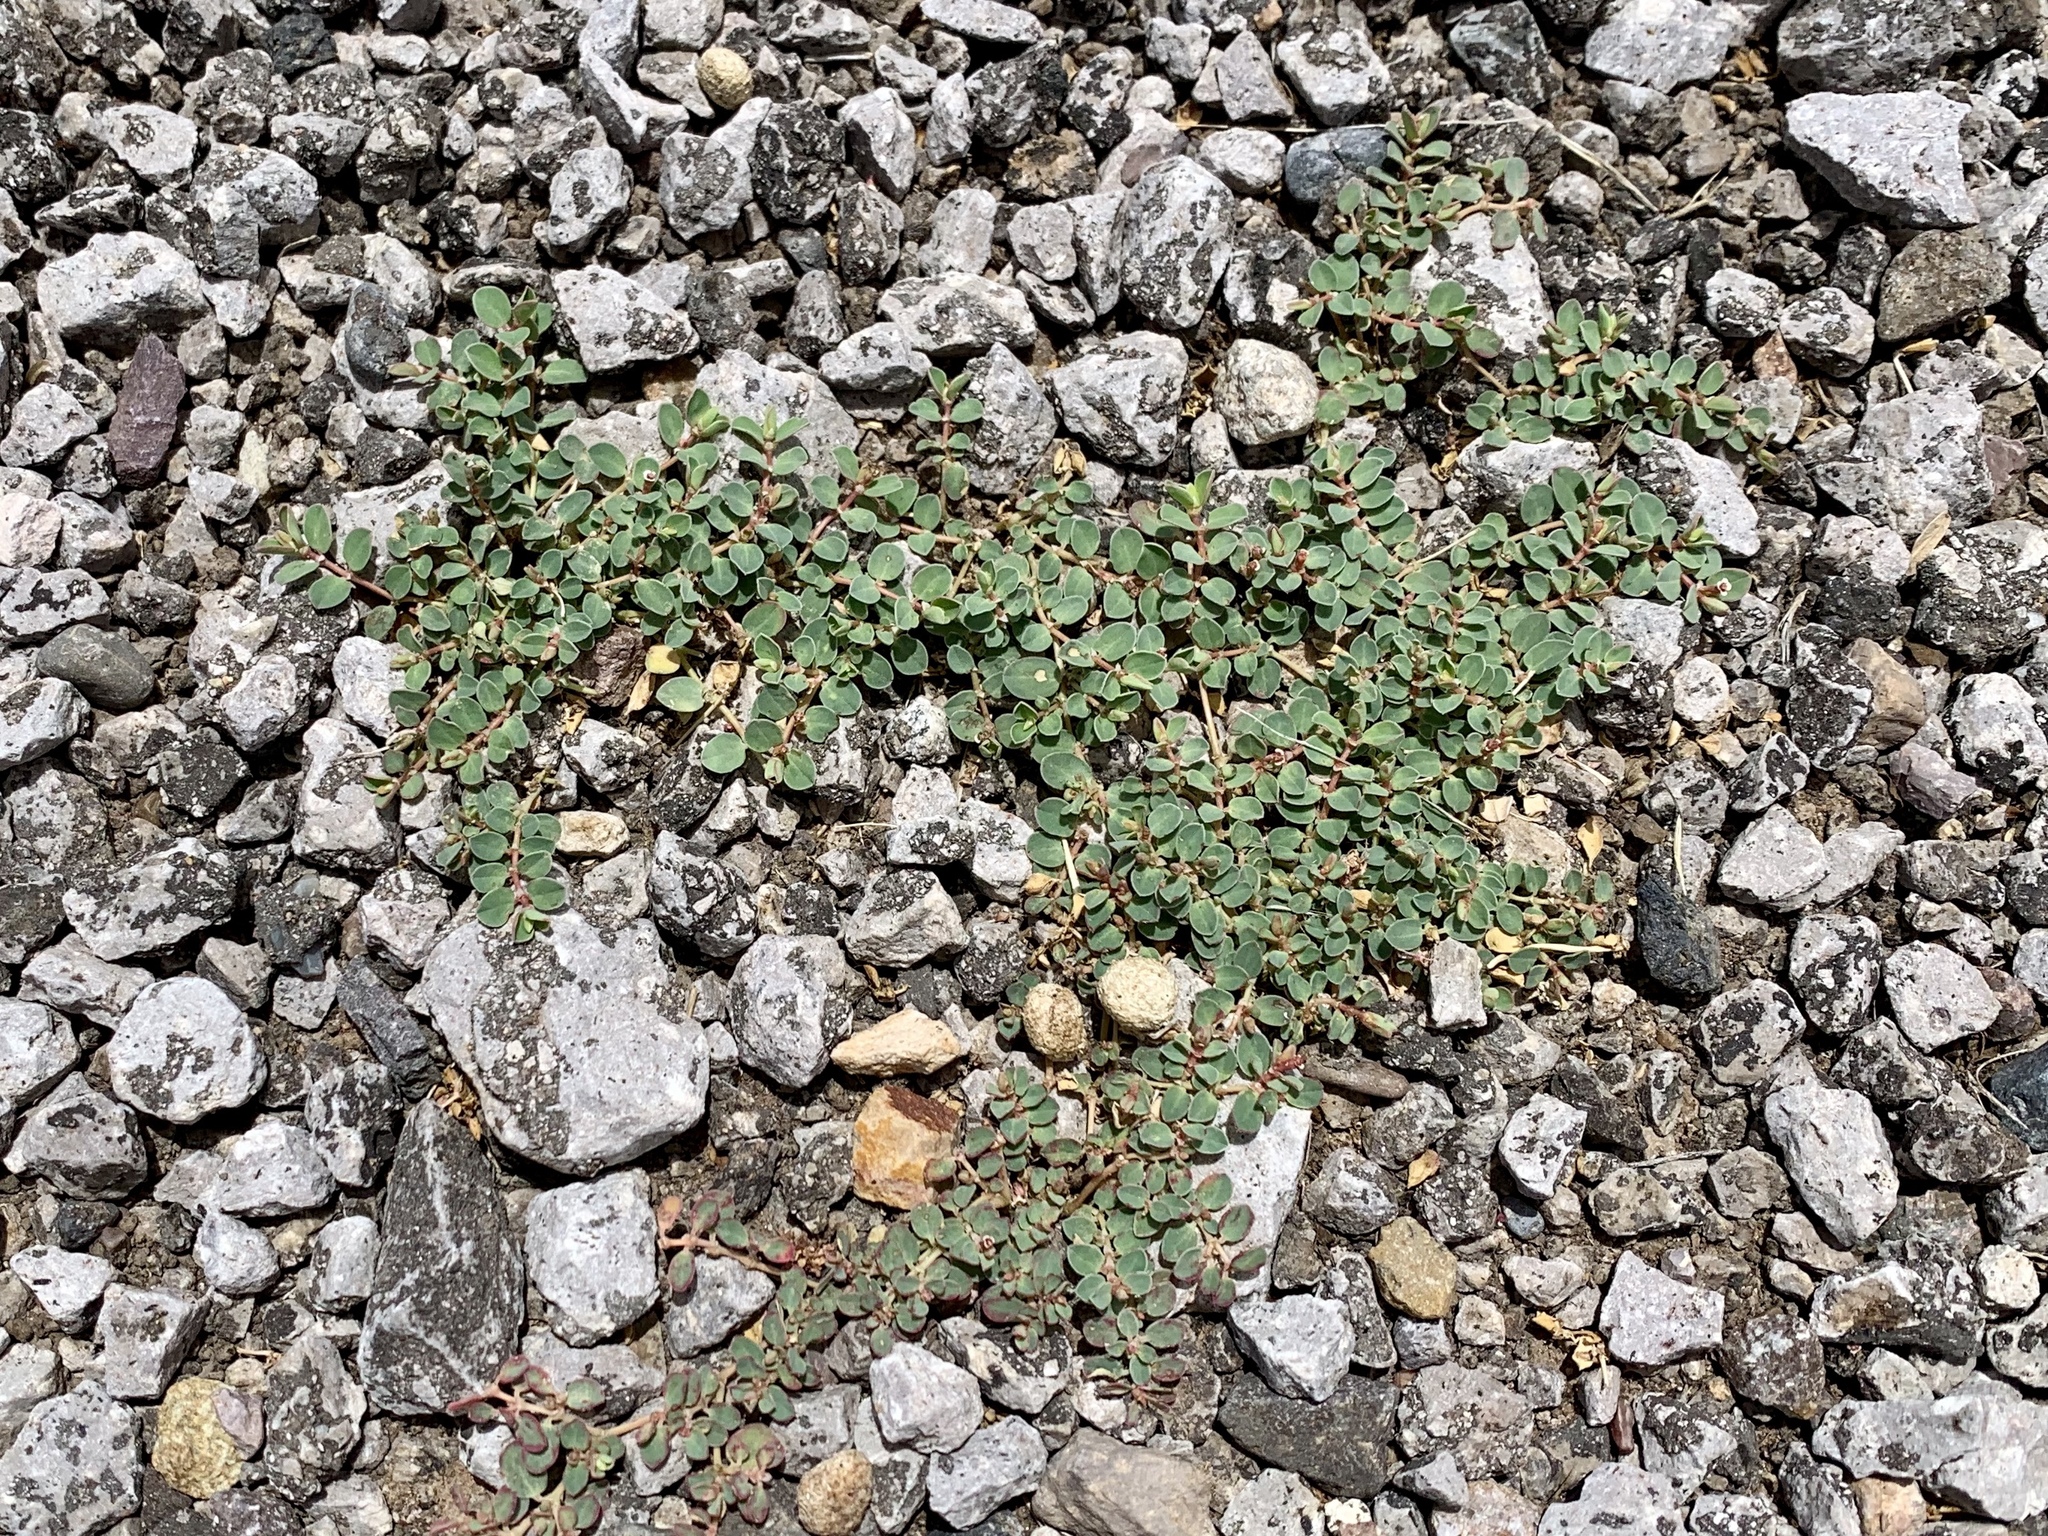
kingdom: Plantae
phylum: Tracheophyta
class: Magnoliopsida
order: Malpighiales
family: Euphorbiaceae
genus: Euphorbia
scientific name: Euphorbia albomarginata
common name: Whitemargin sandmat
